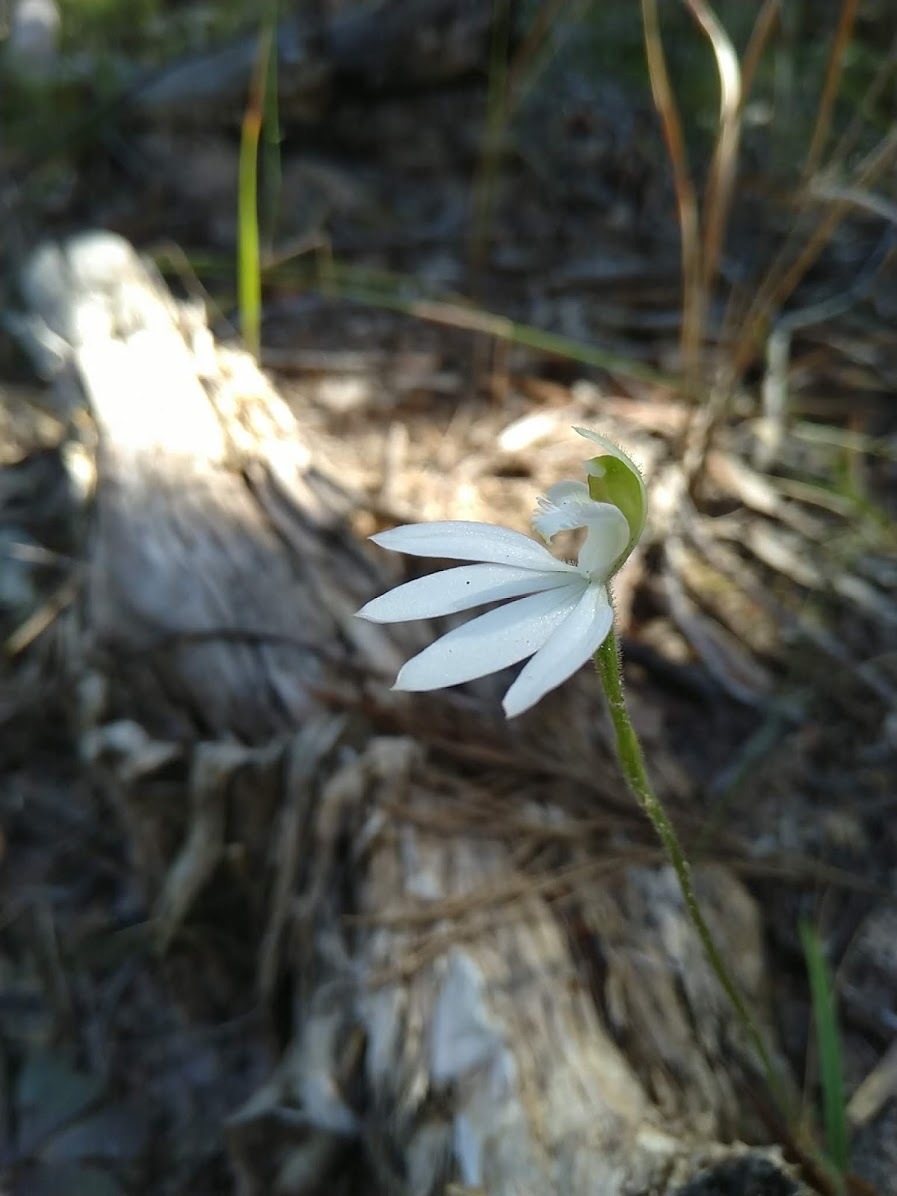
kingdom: Plantae
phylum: Tracheophyta
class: Liliopsida
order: Asparagales
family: Orchidaceae
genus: Caladenia
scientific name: Caladenia catenata
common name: White caladenia
